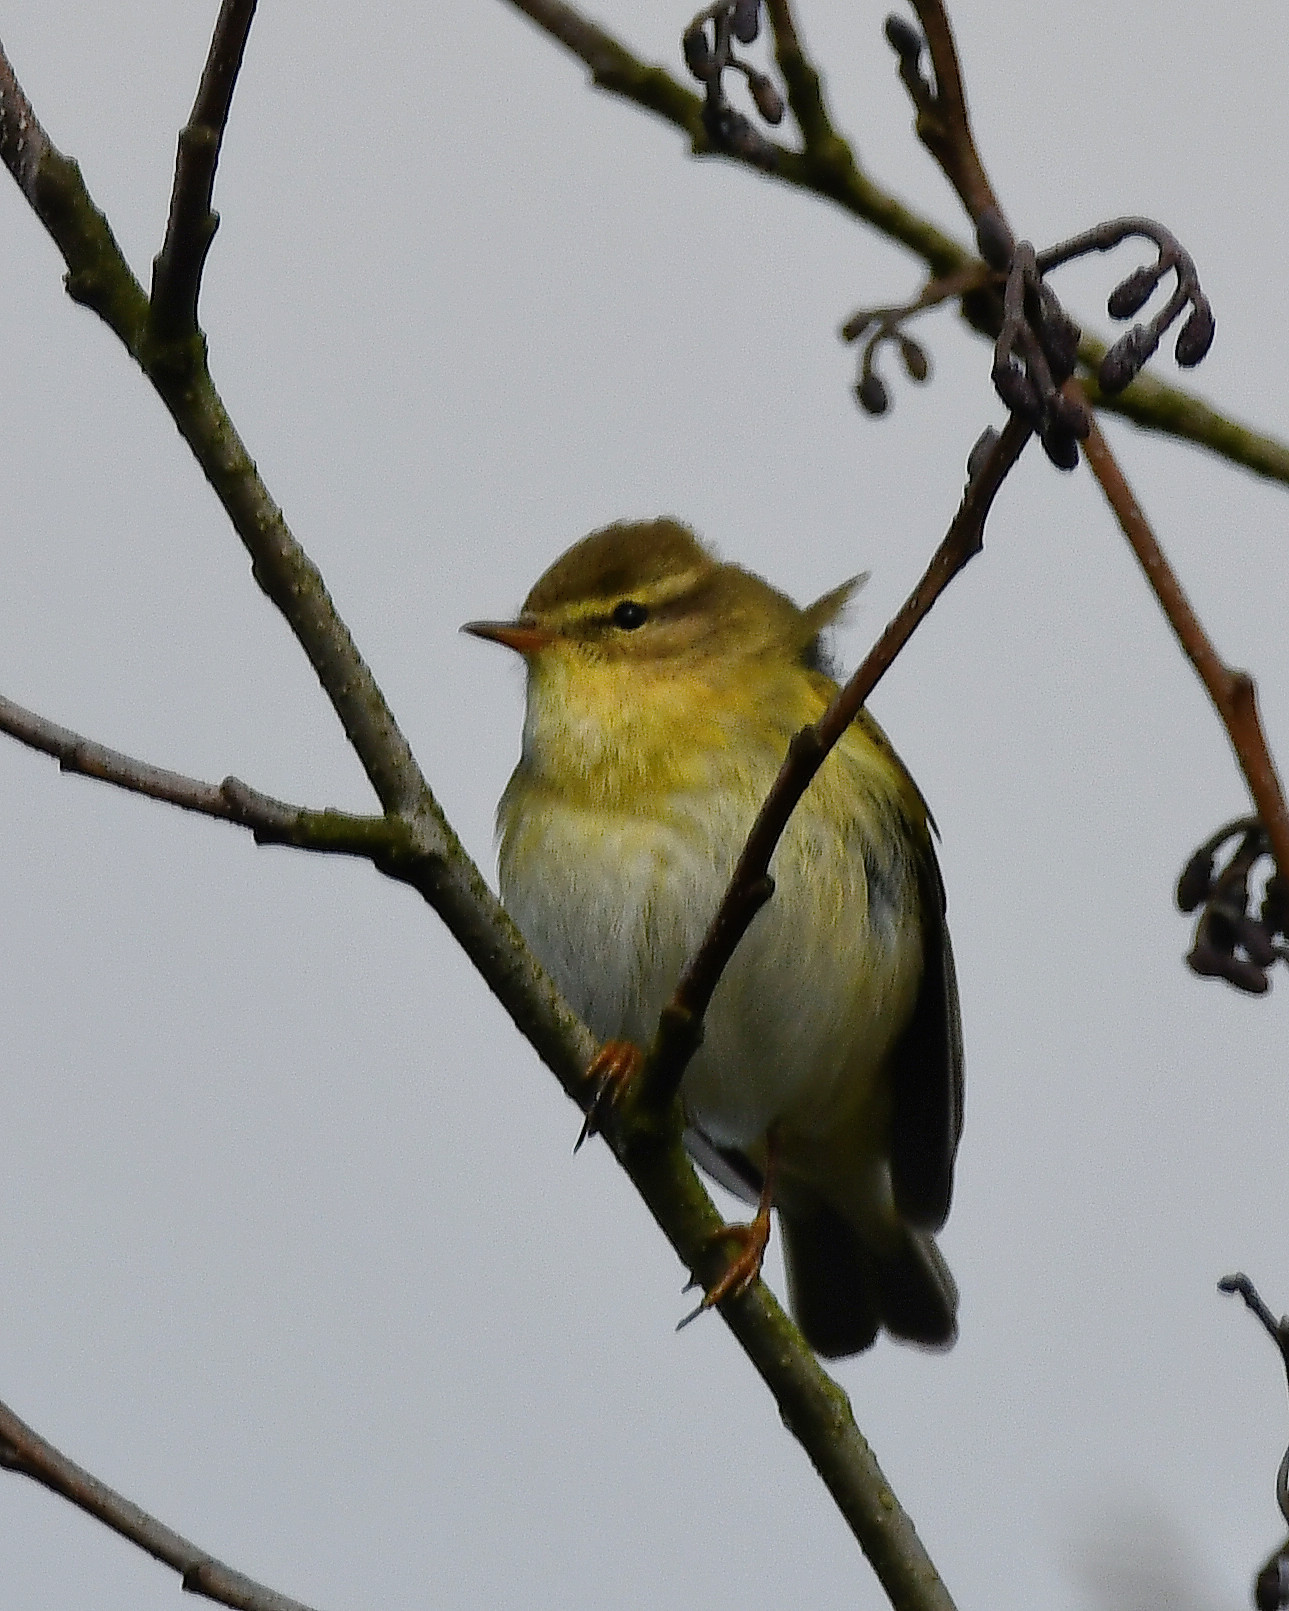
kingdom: Animalia
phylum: Chordata
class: Aves
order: Passeriformes
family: Phylloscopidae
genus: Phylloscopus
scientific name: Phylloscopus trochilus
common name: Willow warbler
